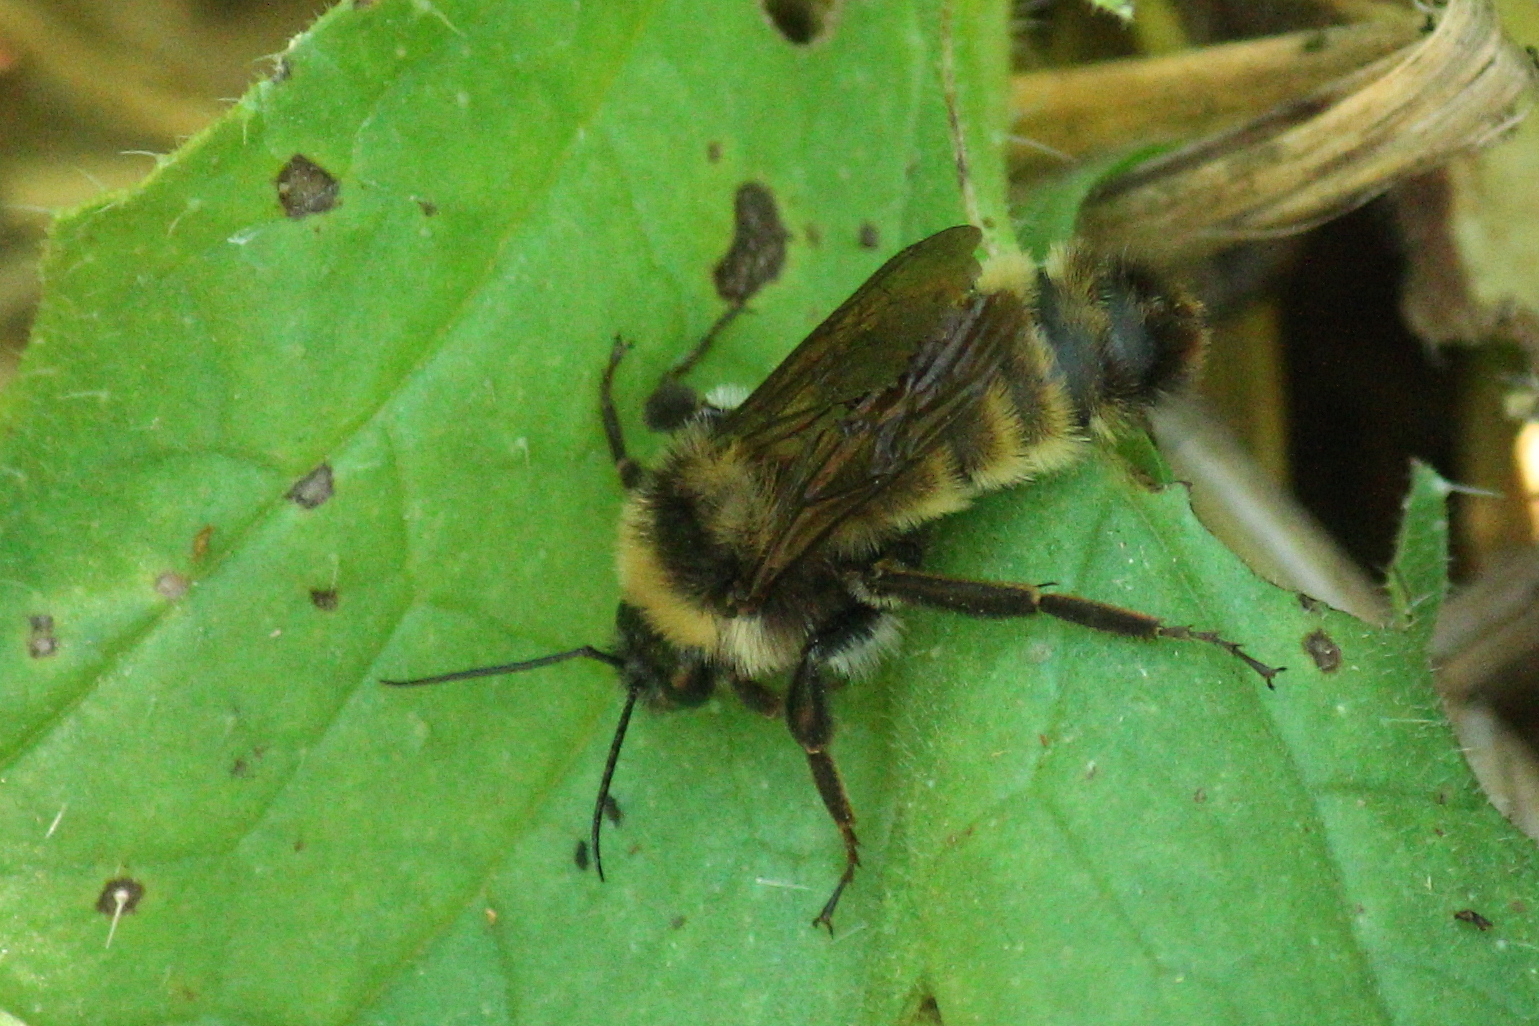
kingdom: Animalia
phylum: Arthropoda
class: Insecta
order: Hymenoptera
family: Apidae
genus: Bombus
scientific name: Bombus pensylvanicus
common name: Bumble bee
